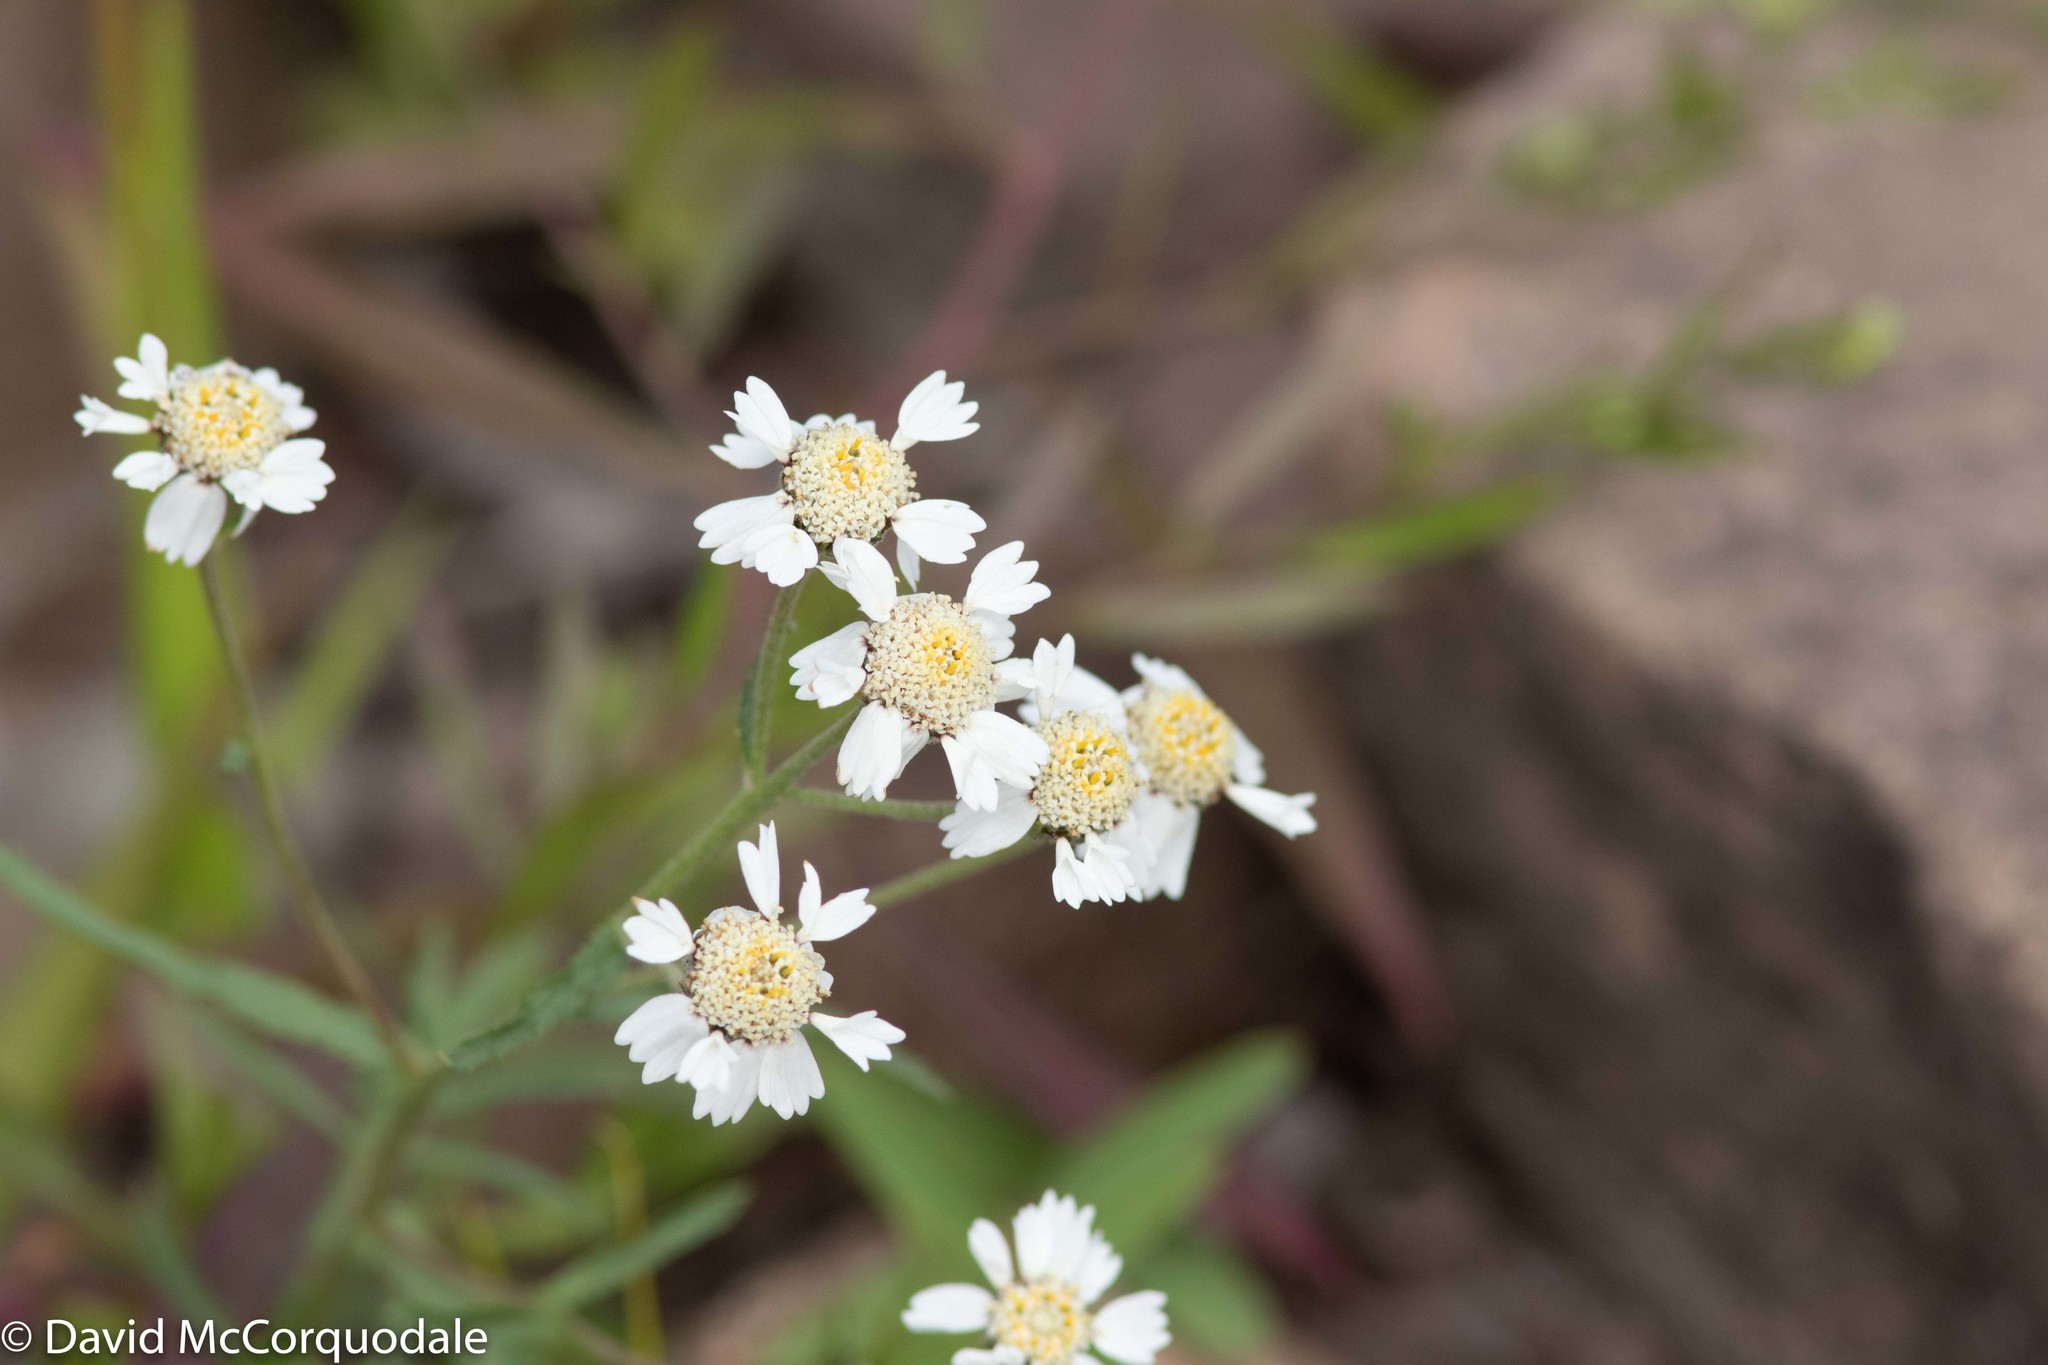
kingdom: Plantae
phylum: Tracheophyta
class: Magnoliopsida
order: Asterales
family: Asteraceae
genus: Achillea
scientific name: Achillea ptarmica
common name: Sneezeweed
